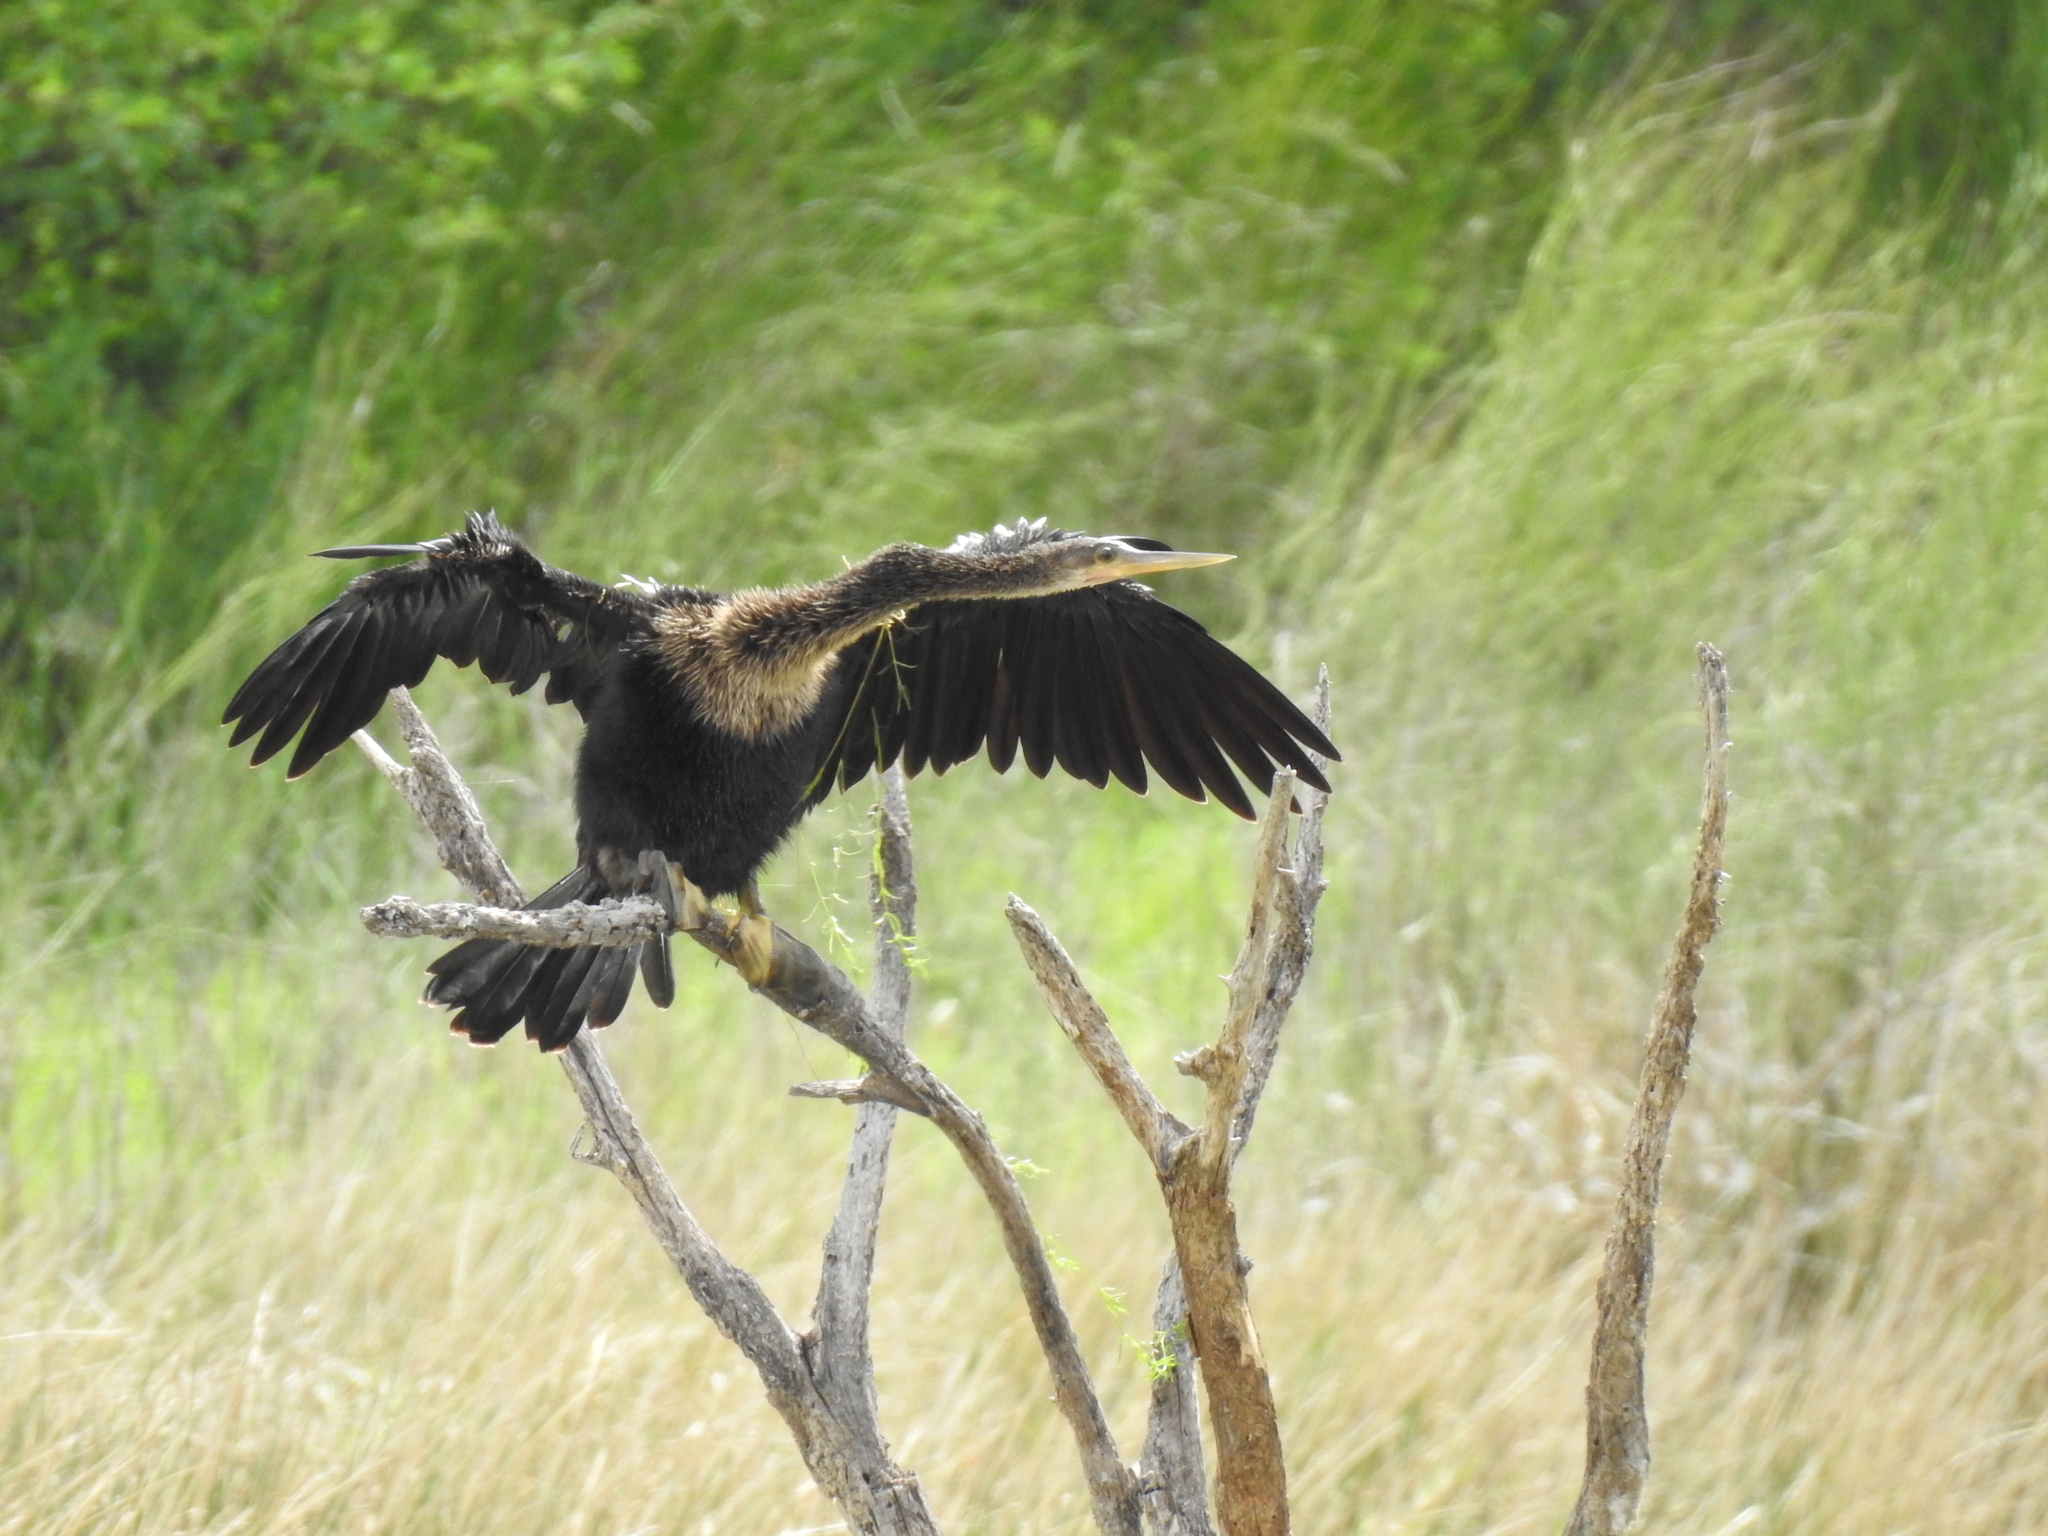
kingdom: Animalia
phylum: Chordata
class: Aves
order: Suliformes
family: Anhingidae
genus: Anhinga
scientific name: Anhinga anhinga
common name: Anhinga
